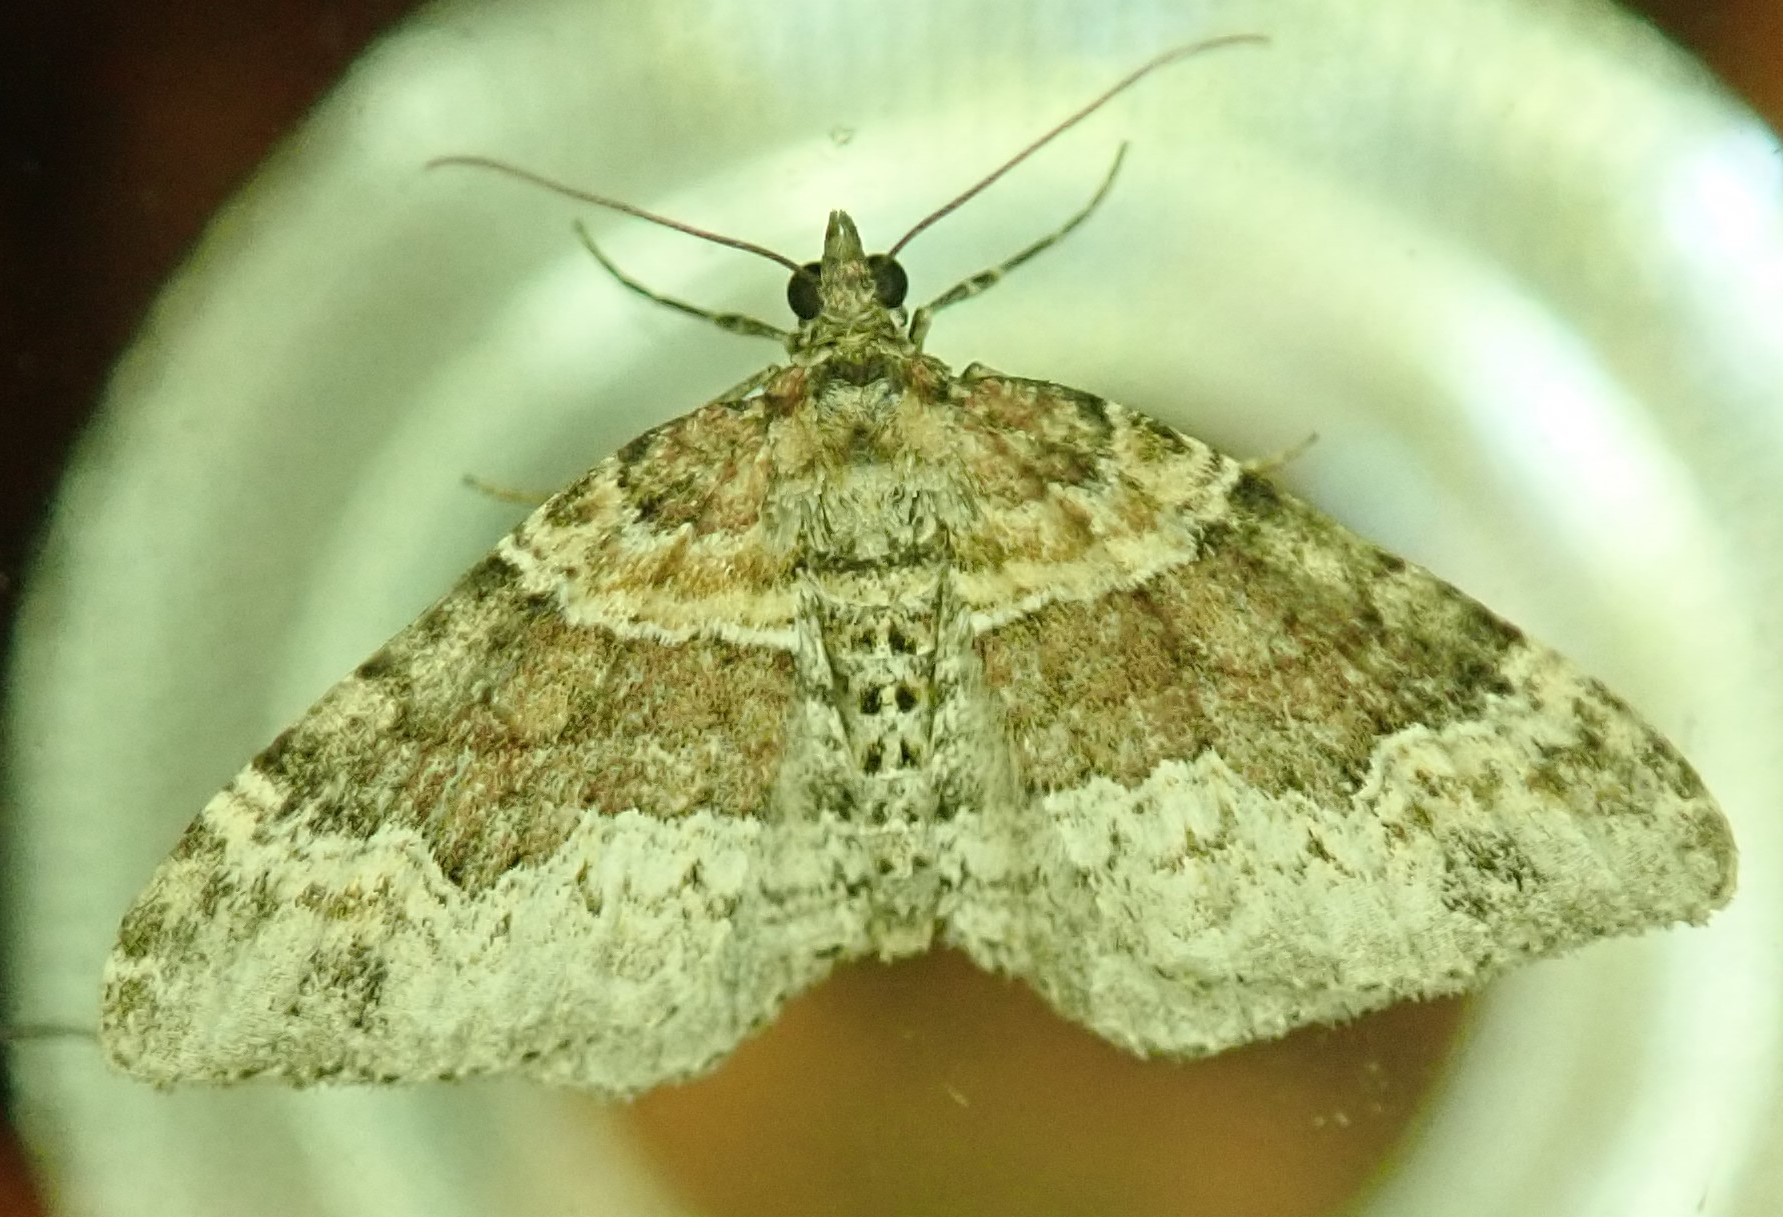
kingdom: Animalia
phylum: Arthropoda
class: Insecta
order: Lepidoptera
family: Geometridae
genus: Xanthorhoe
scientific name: Xanthorhoe lacustrata
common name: Toothed brown carpet
